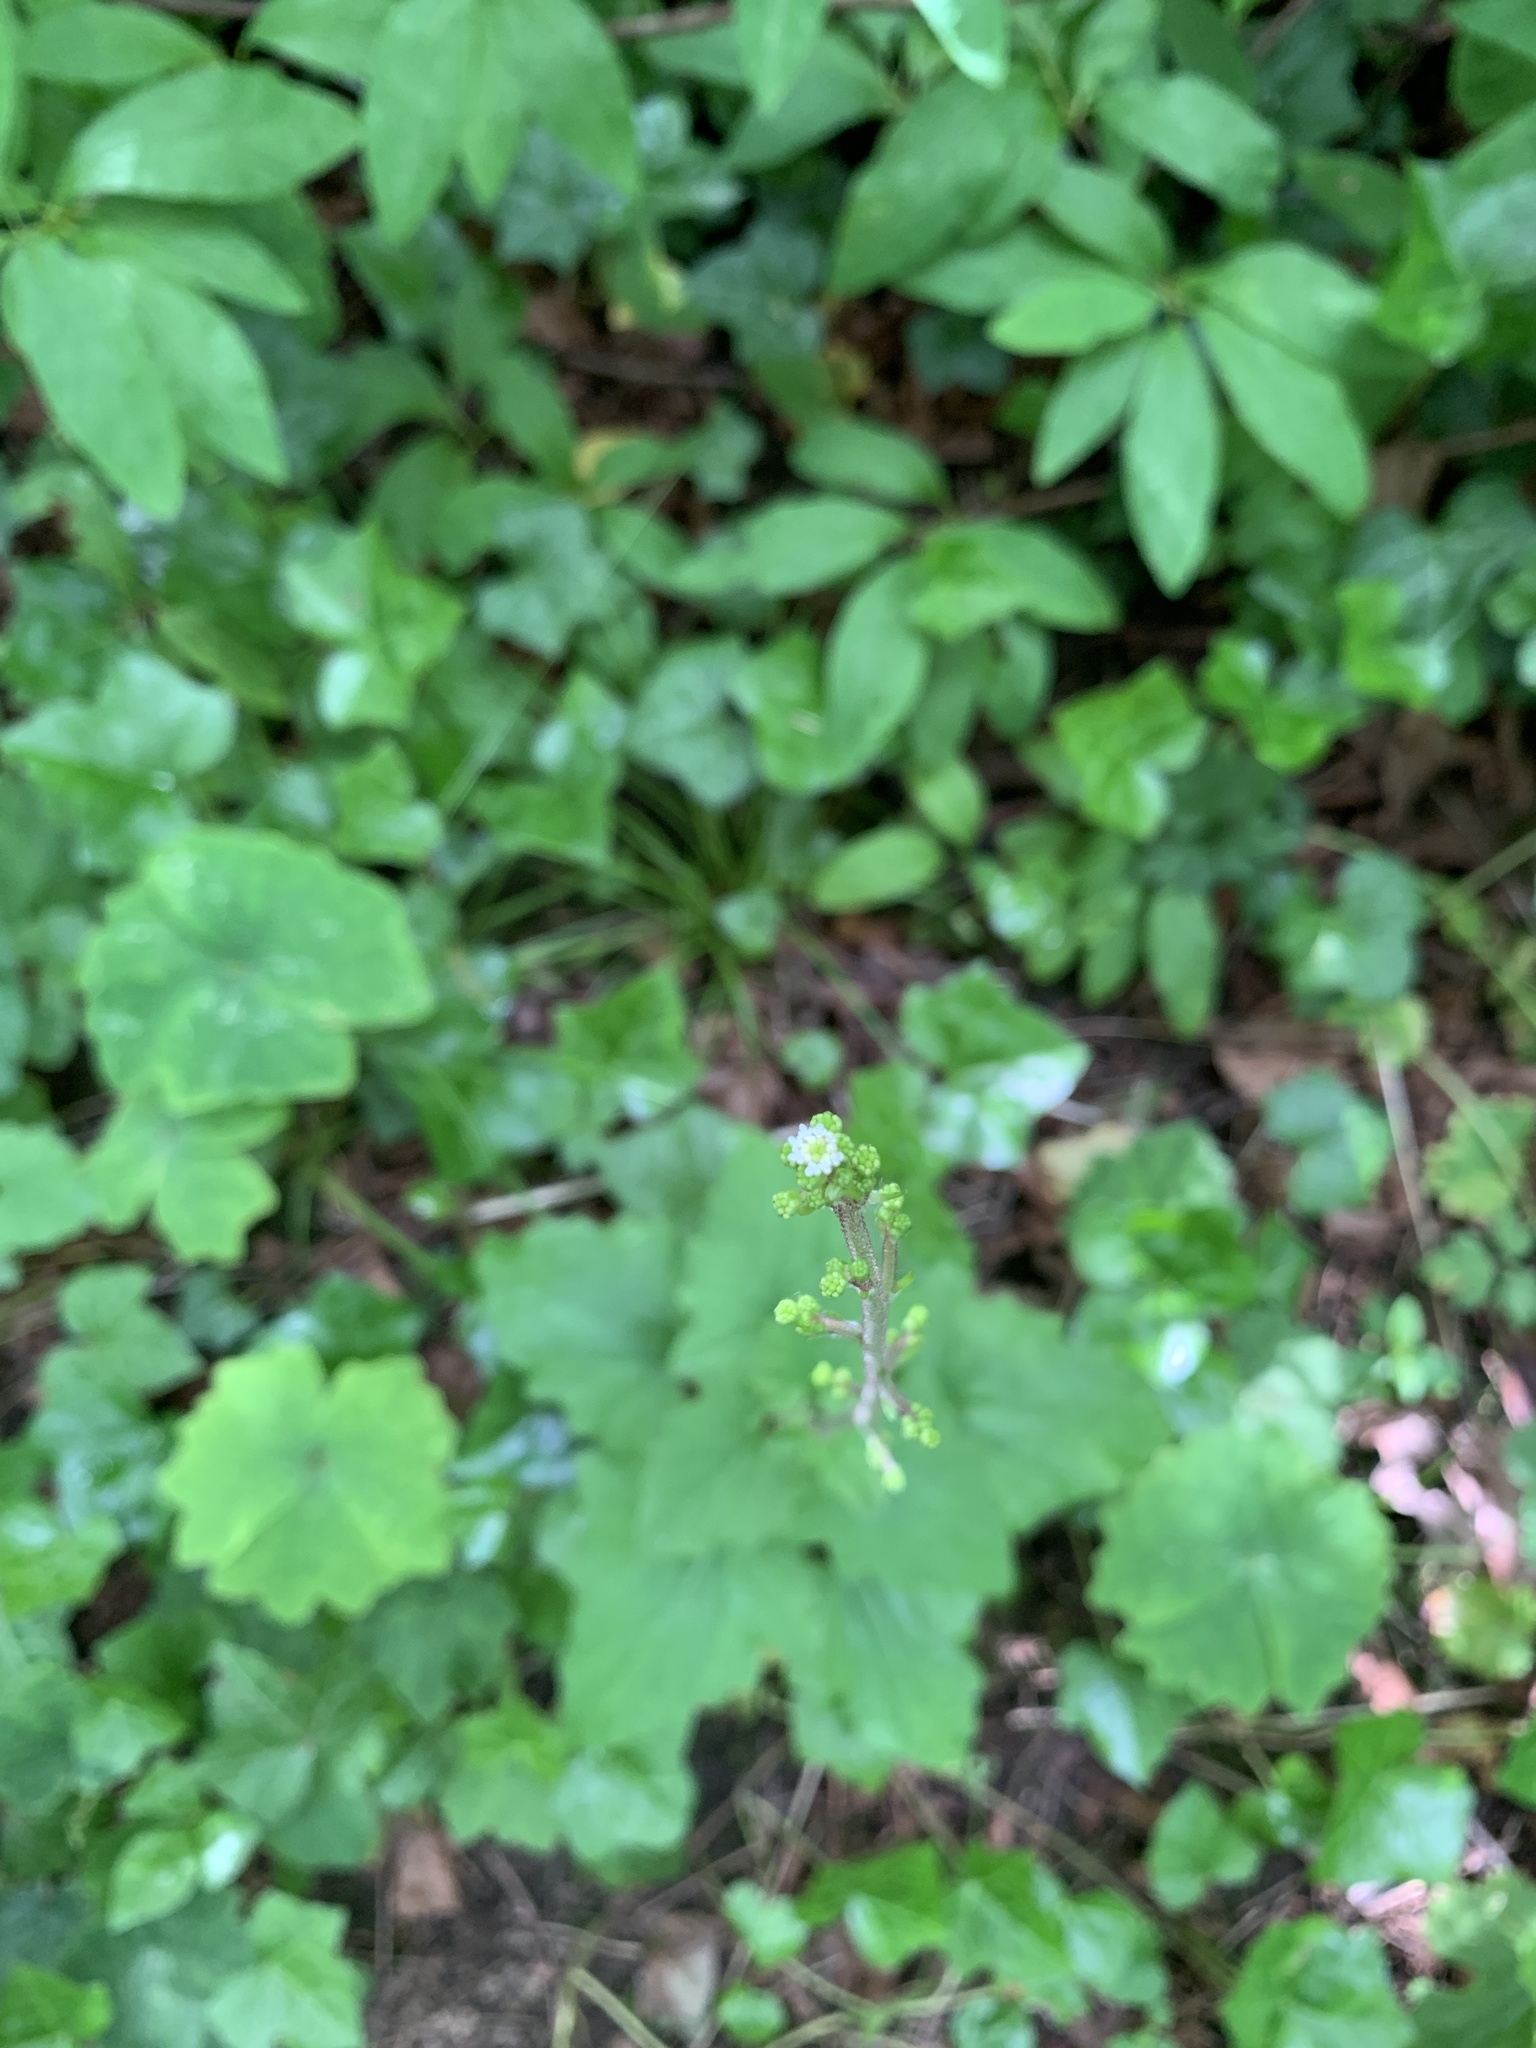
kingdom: Plantae
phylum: Tracheophyta
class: Magnoliopsida
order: Asterales
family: Asteraceae
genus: Adenocaulon
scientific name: Adenocaulon bicolor
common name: Trailplant
